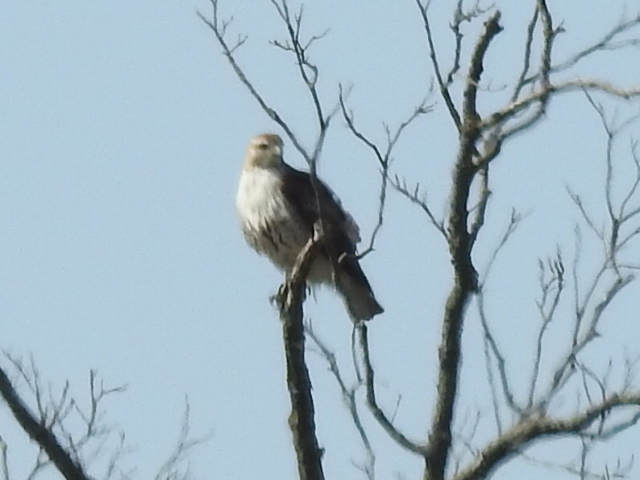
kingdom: Animalia
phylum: Chordata
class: Aves
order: Accipitriformes
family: Accipitridae
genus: Buteo
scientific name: Buteo jamaicensis
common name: Red-tailed hawk
